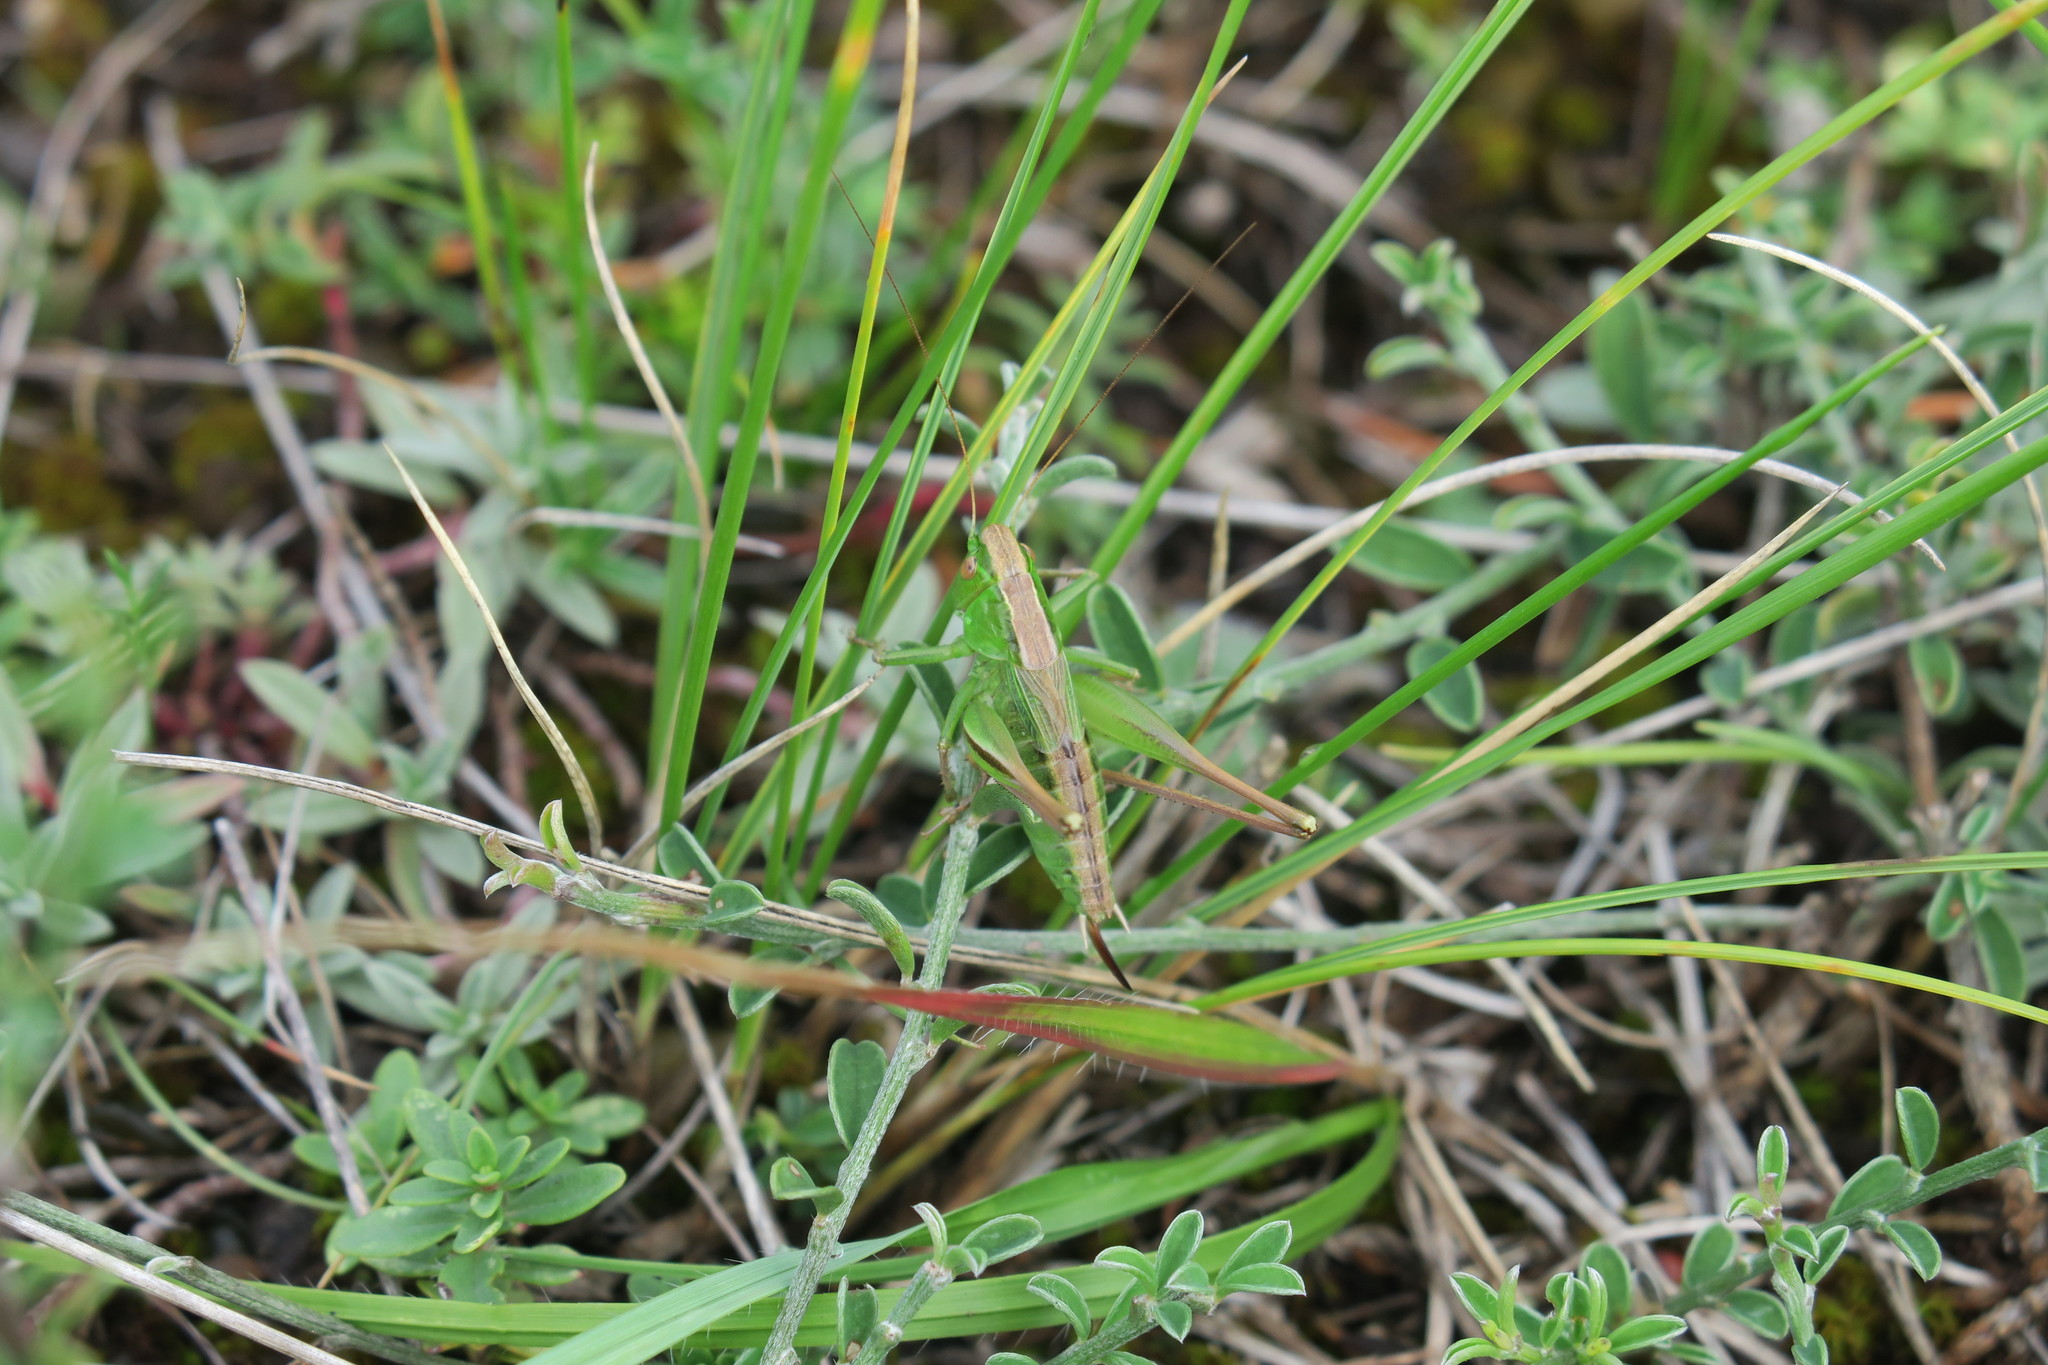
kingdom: Animalia
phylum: Arthropoda
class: Insecta
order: Orthoptera
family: Tettigoniidae
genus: Bicolorana
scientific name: Bicolorana bicolor
